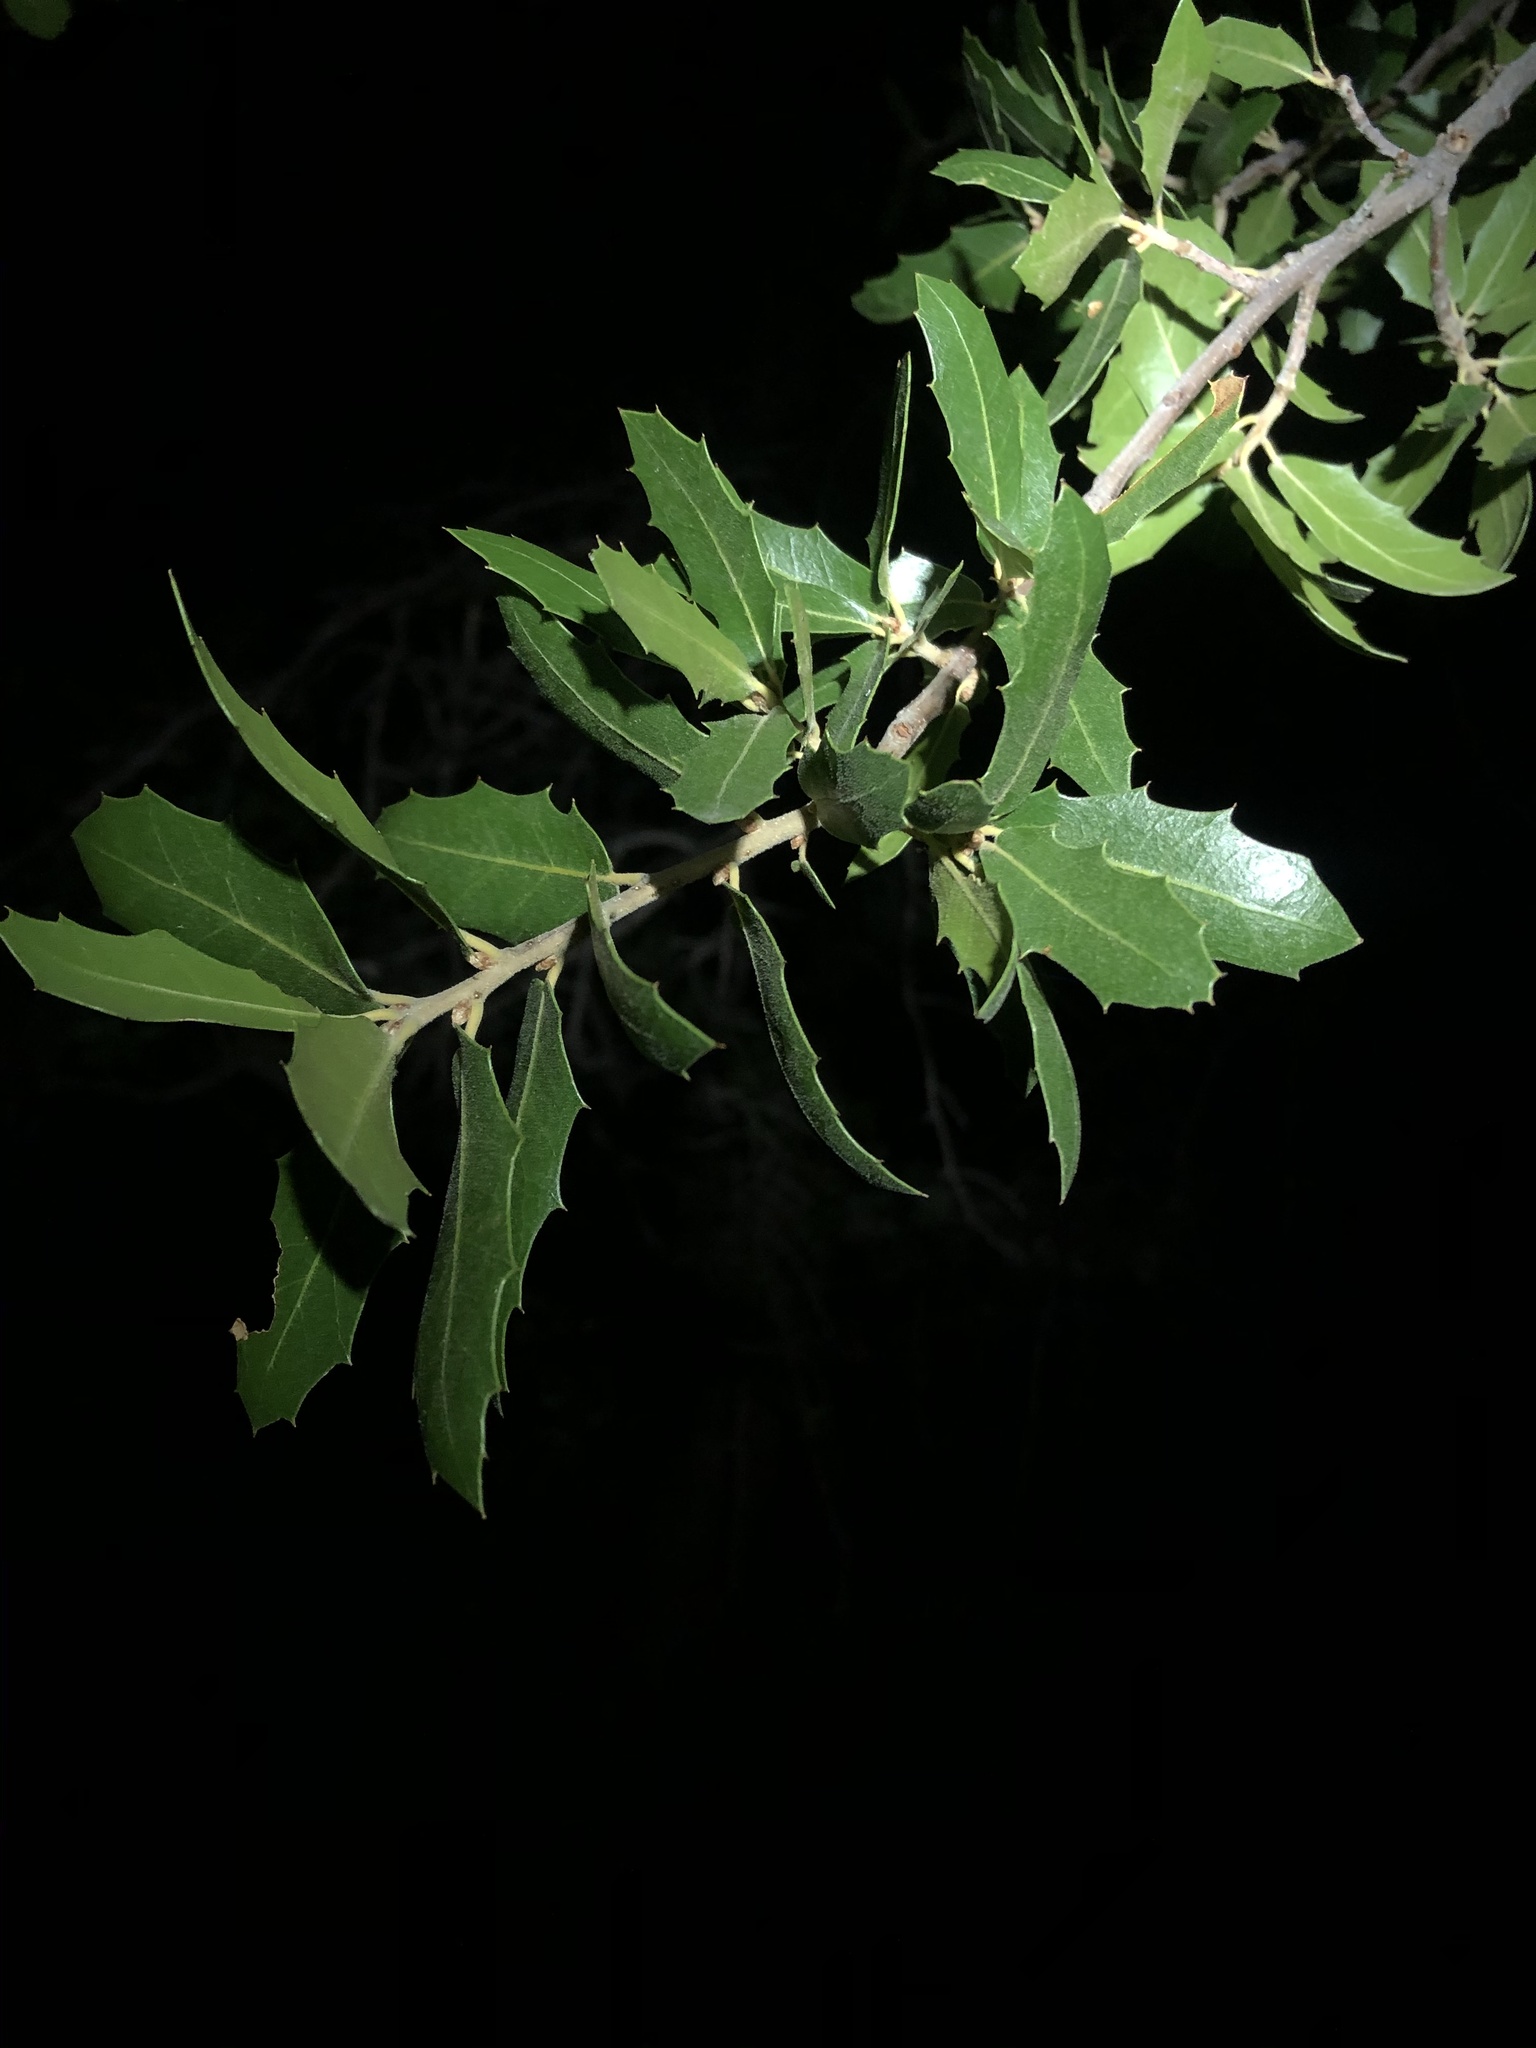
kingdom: Plantae
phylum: Tracheophyta
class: Magnoliopsida
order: Fagales
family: Fagaceae
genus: Quercus
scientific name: Quercus emoryi
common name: Emory oak
